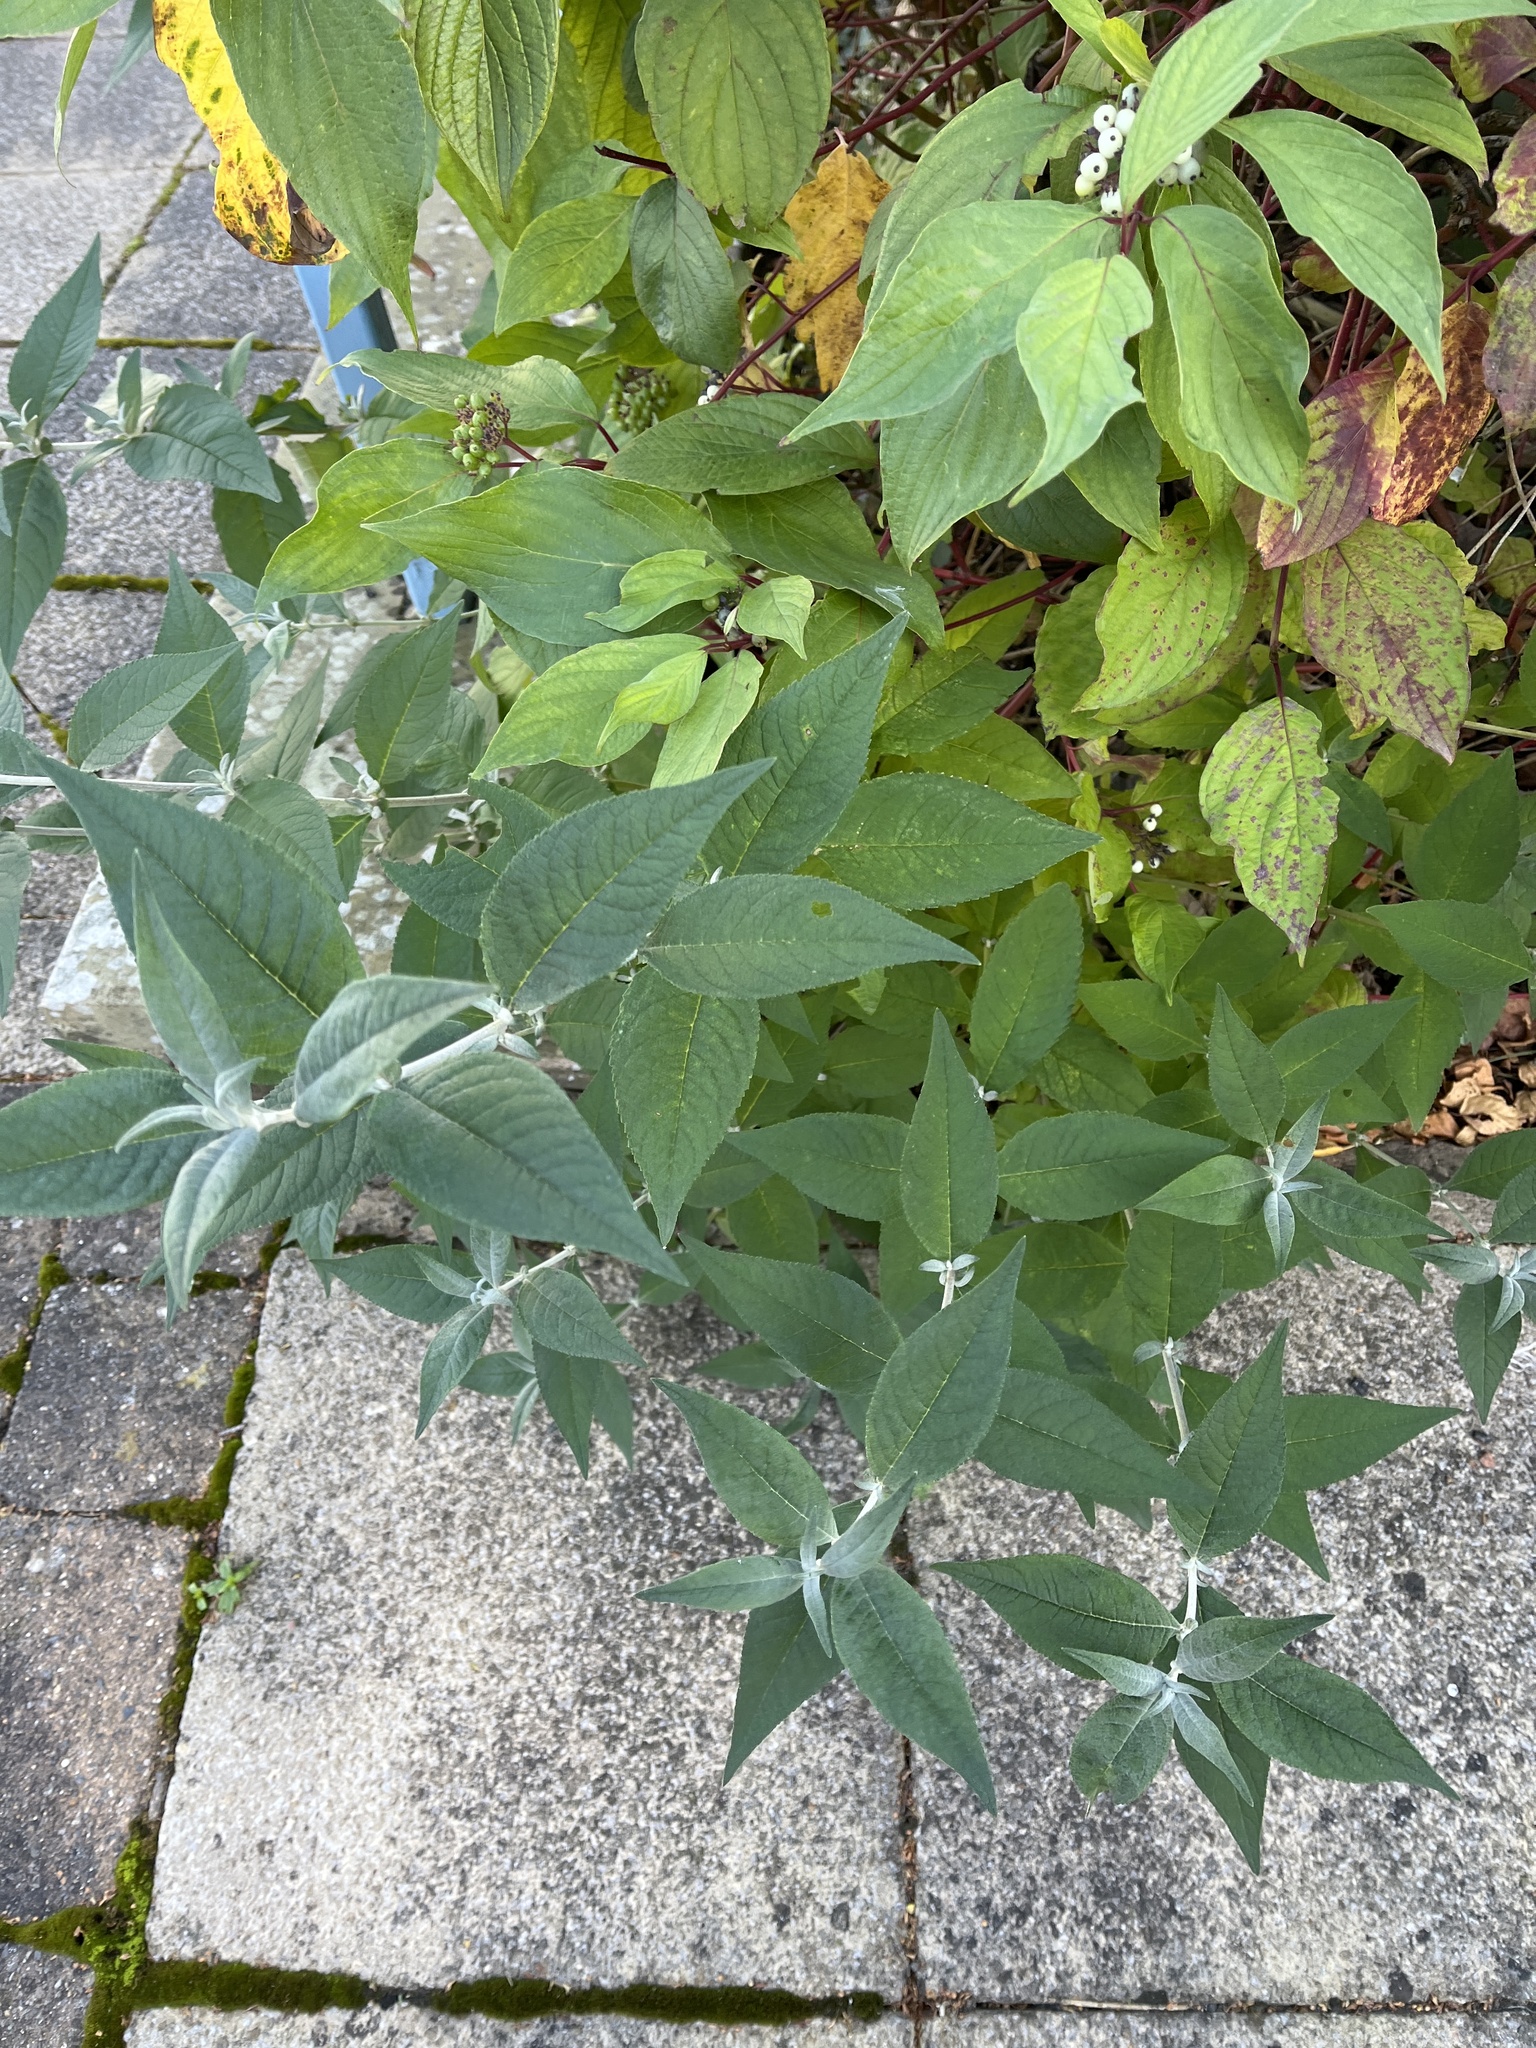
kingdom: Plantae
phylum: Tracheophyta
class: Magnoliopsida
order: Lamiales
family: Scrophulariaceae
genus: Buddleja
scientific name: Buddleja davidii
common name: Butterfly-bush
